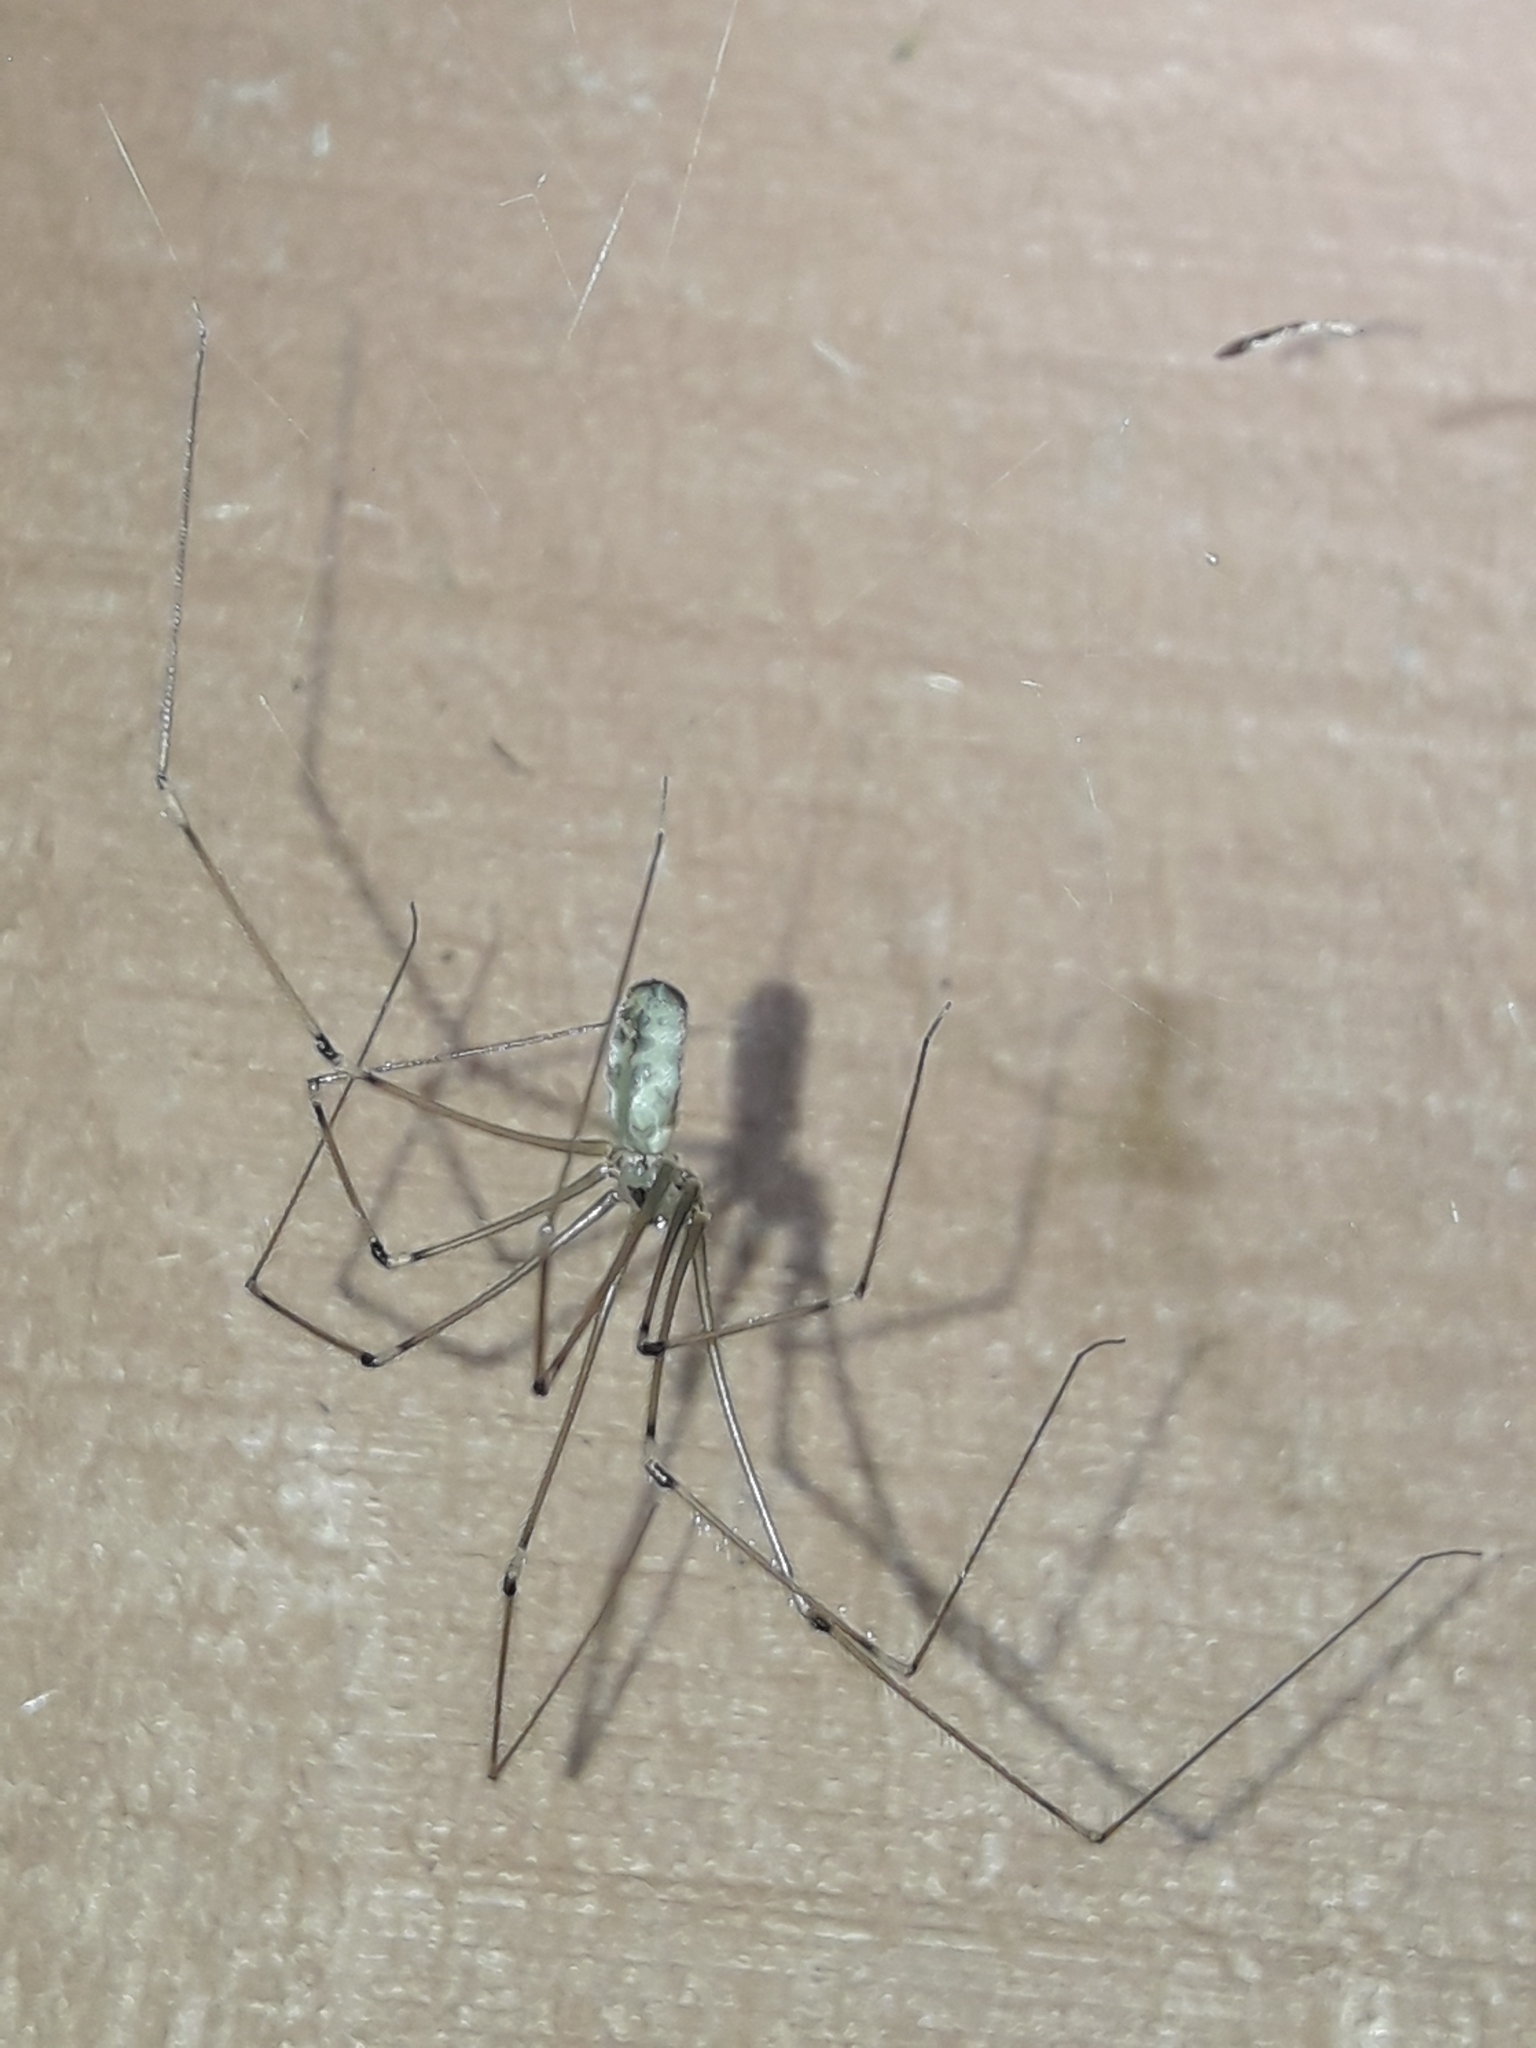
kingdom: Animalia
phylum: Arthropoda
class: Arachnida
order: Araneae
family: Pholcidae
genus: Pholcus
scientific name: Pholcus phalangioides
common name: Longbodied cellar spider
